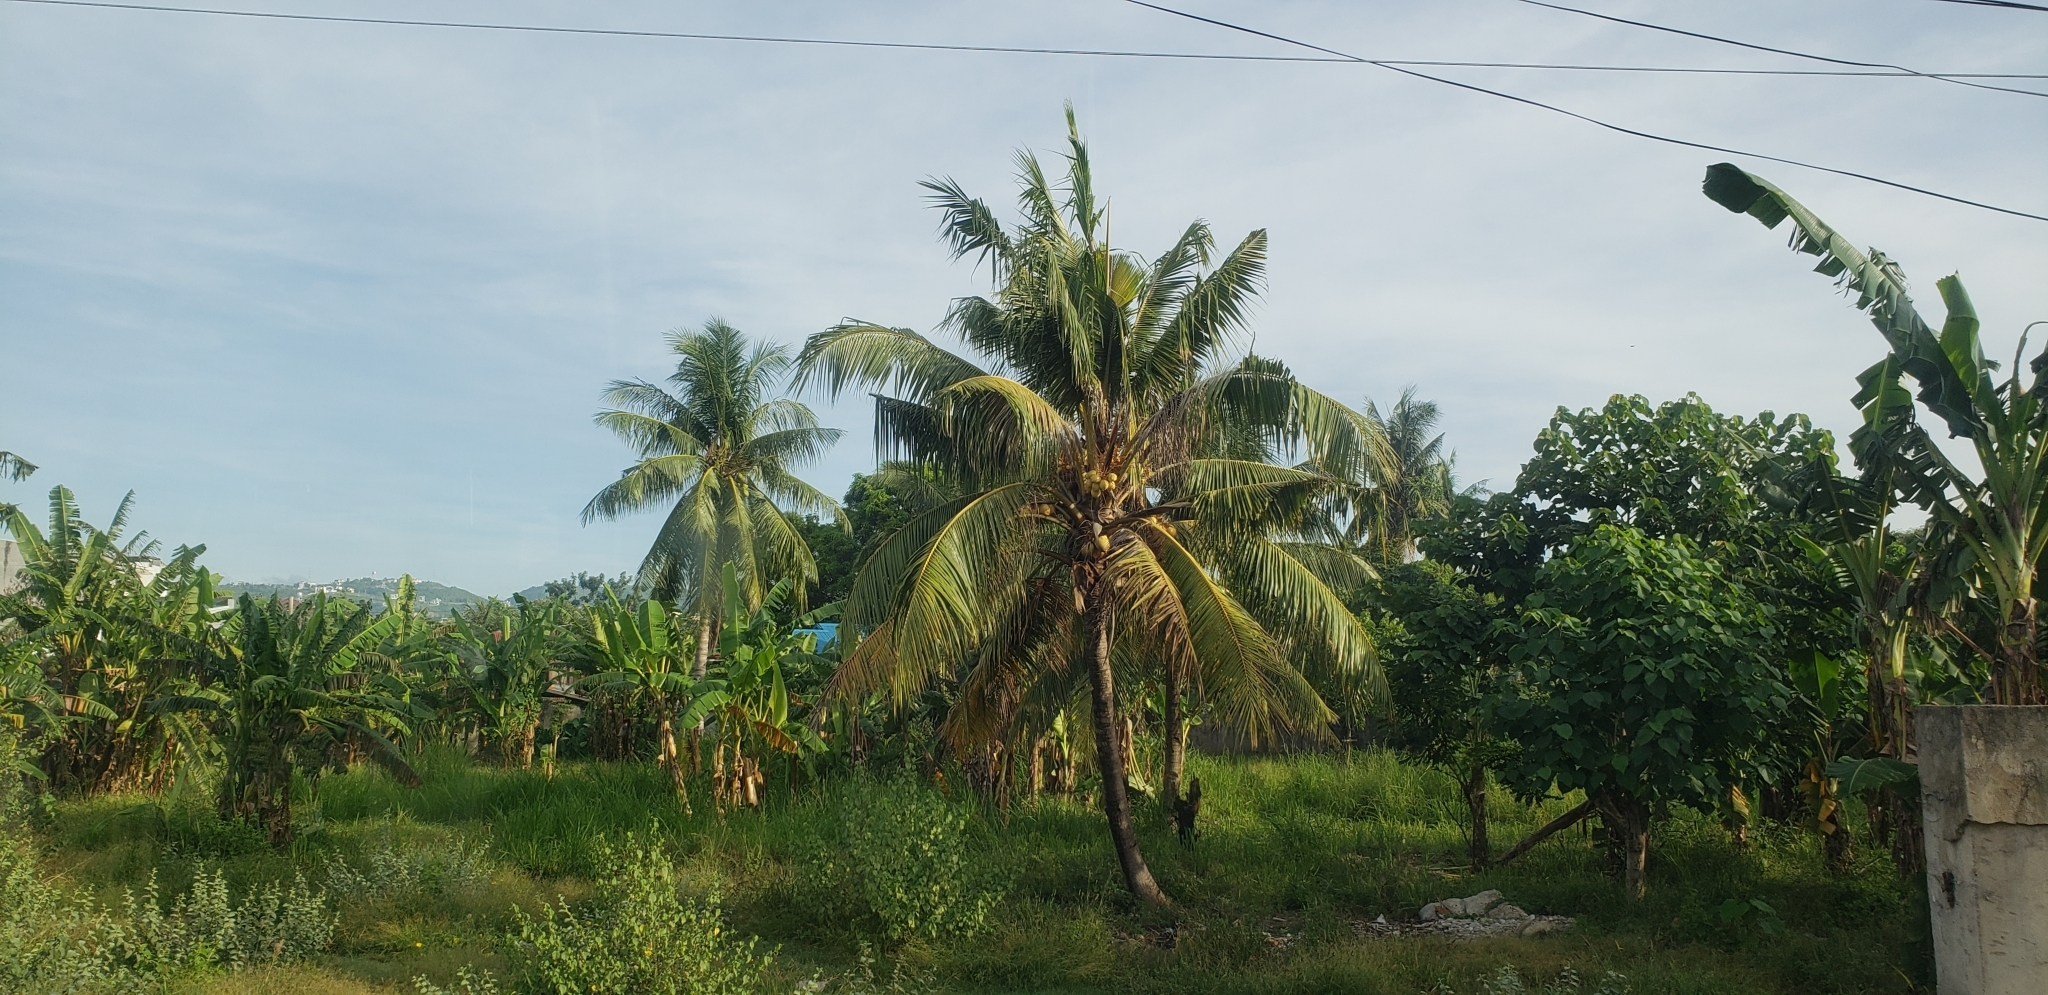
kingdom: Plantae
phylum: Tracheophyta
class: Liliopsida
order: Arecales
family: Arecaceae
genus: Cocos
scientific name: Cocos nucifera
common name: Coconut palm
